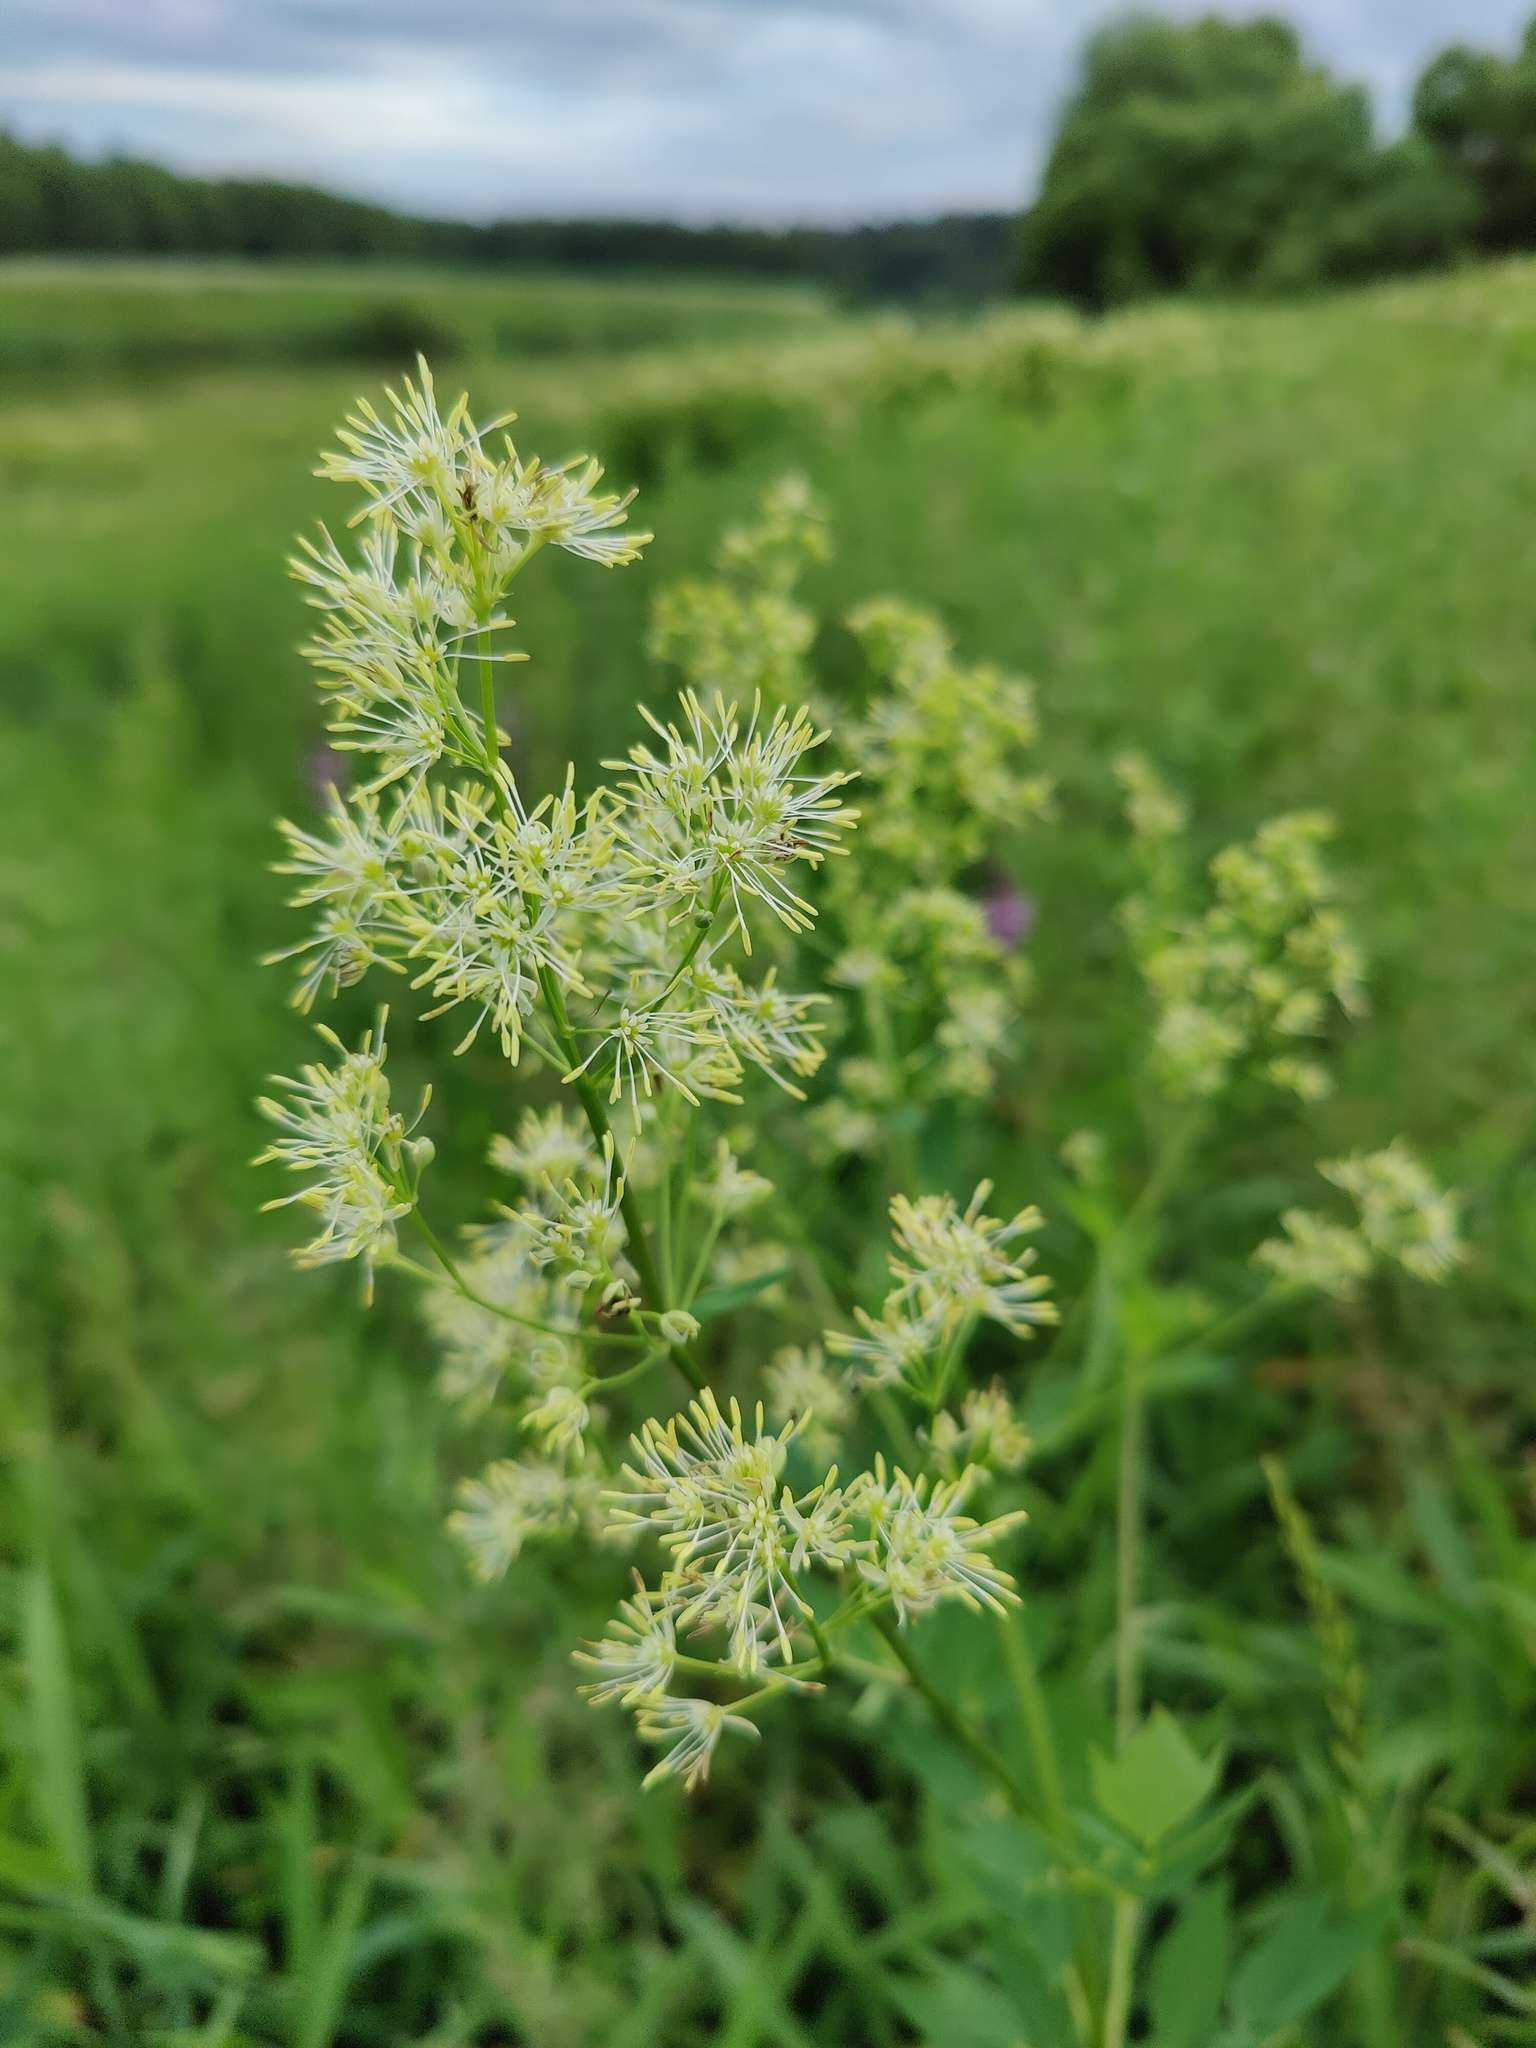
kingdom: Plantae
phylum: Tracheophyta
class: Magnoliopsida
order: Ranunculales
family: Ranunculaceae
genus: Thalictrum
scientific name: Thalictrum flavum
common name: Common meadow-rue
